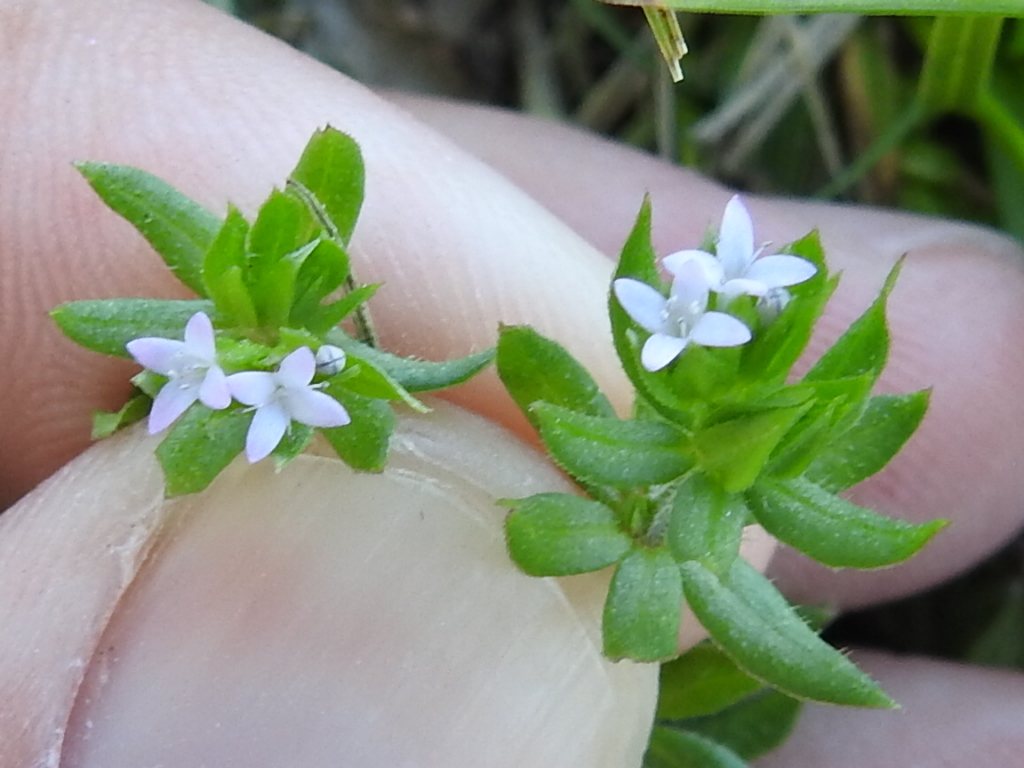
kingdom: Plantae
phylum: Tracheophyta
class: Magnoliopsida
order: Gentianales
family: Rubiaceae
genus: Sherardia
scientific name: Sherardia arvensis
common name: Field madder
